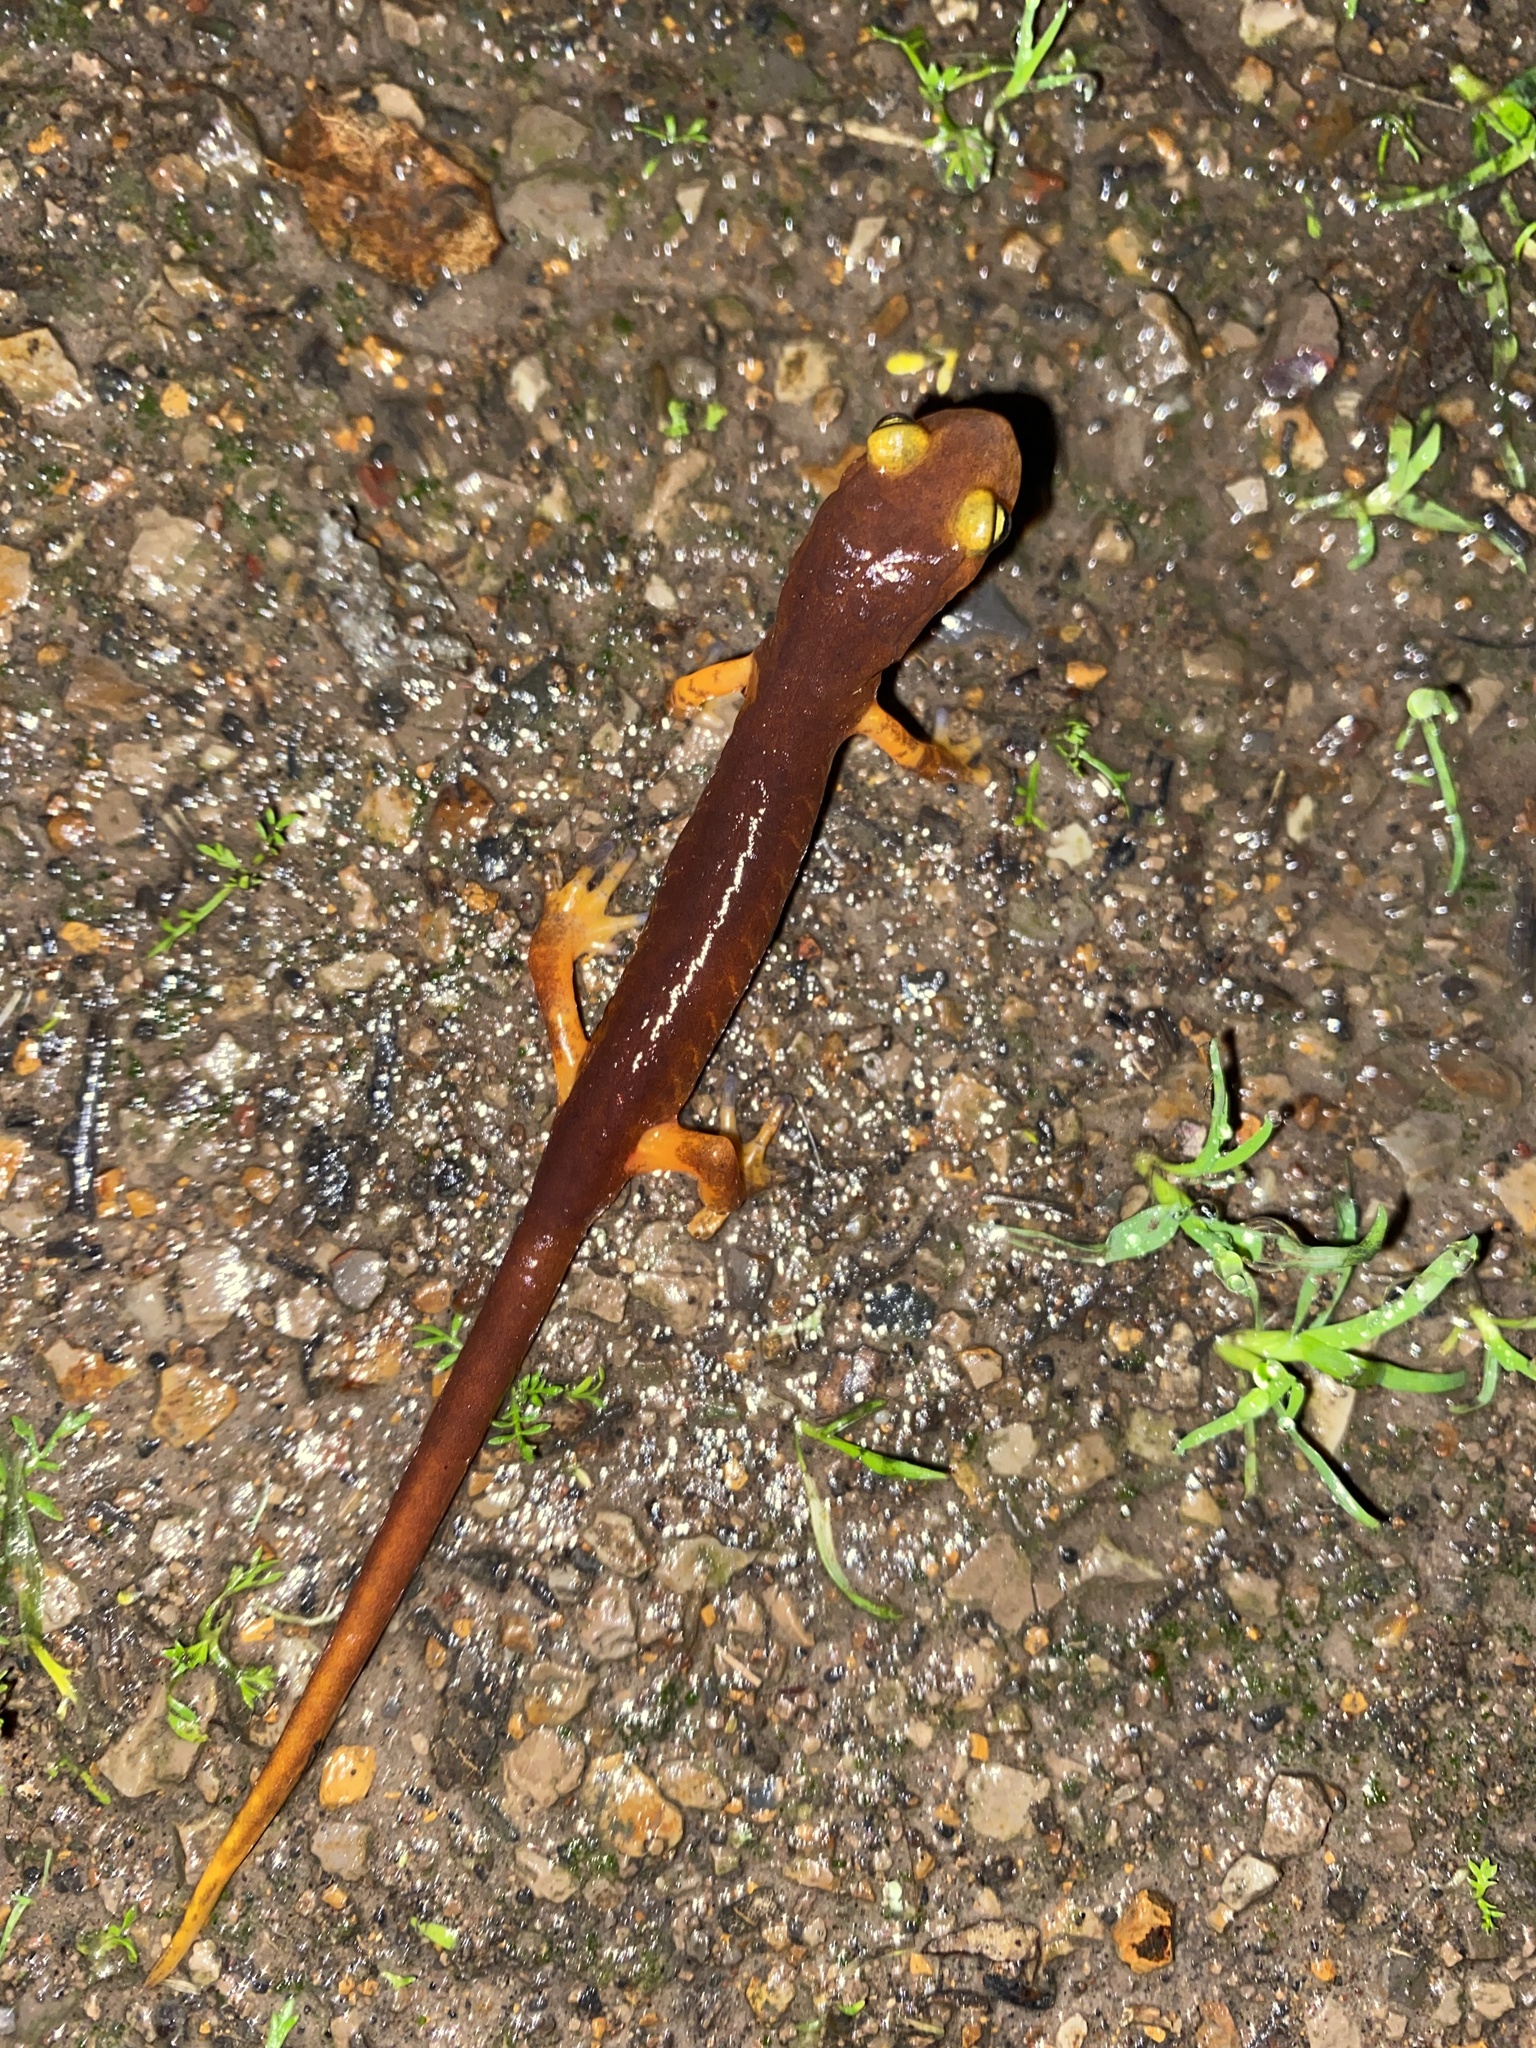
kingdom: Animalia
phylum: Chordata
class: Amphibia
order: Caudata
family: Plethodontidae
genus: Ensatina
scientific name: Ensatina eschscholtzii
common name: Ensatina
